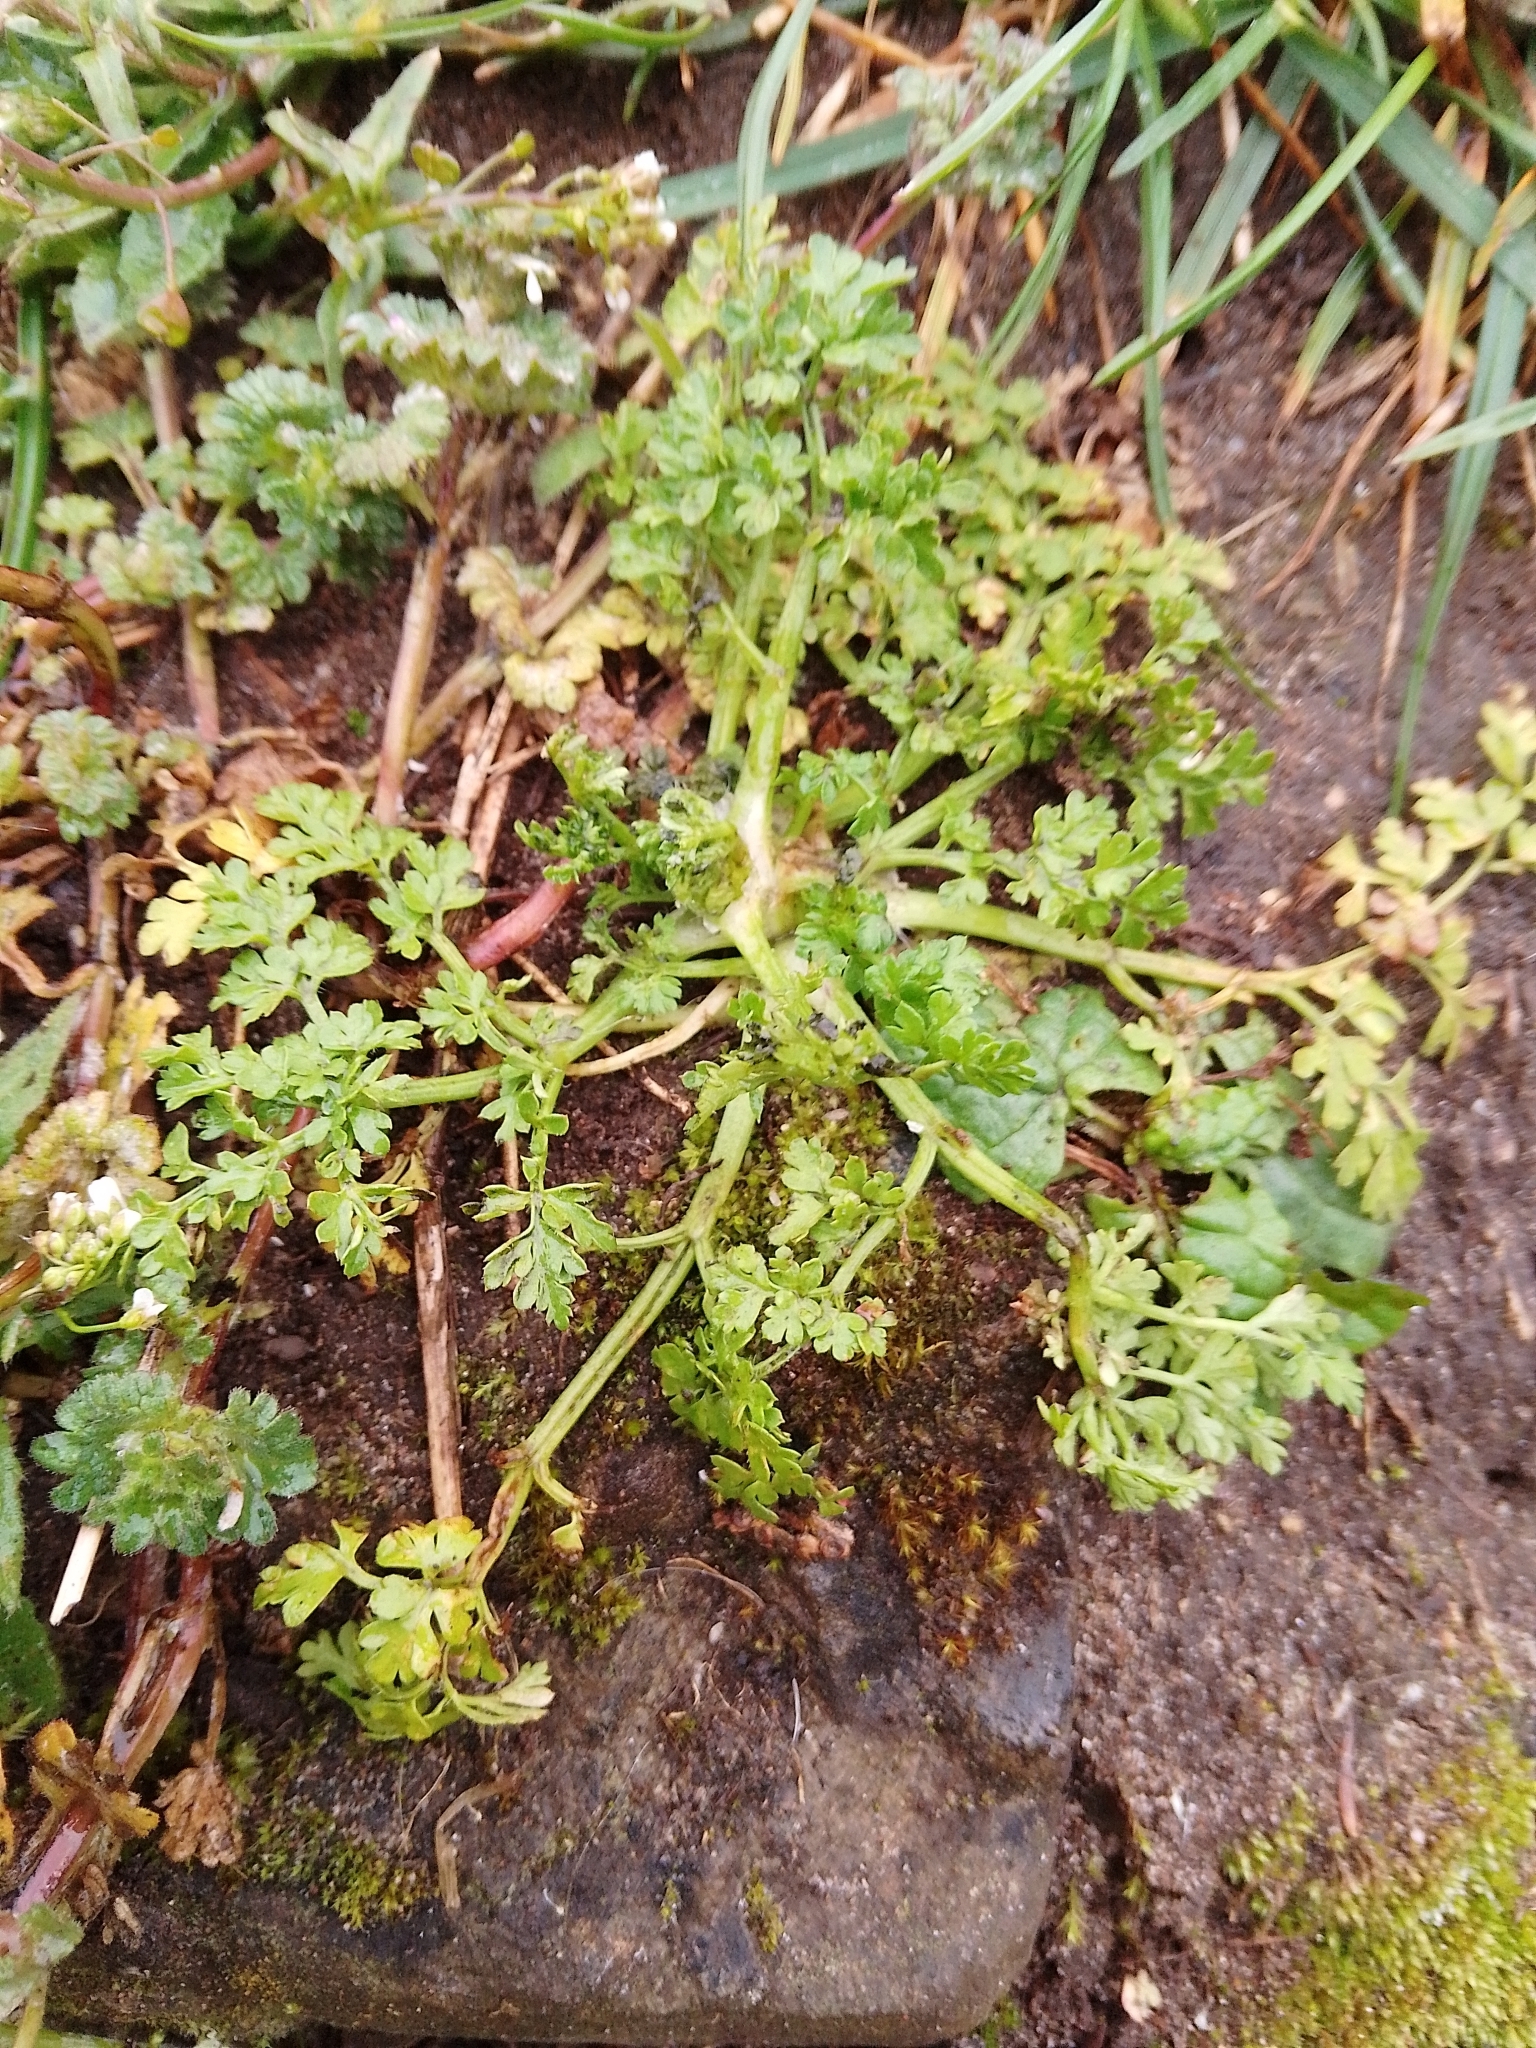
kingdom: Plantae
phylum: Tracheophyta
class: Magnoliopsida
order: Apiales
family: Apiaceae
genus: Anthriscus
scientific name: Anthriscus caucalis
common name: Bur chervil
